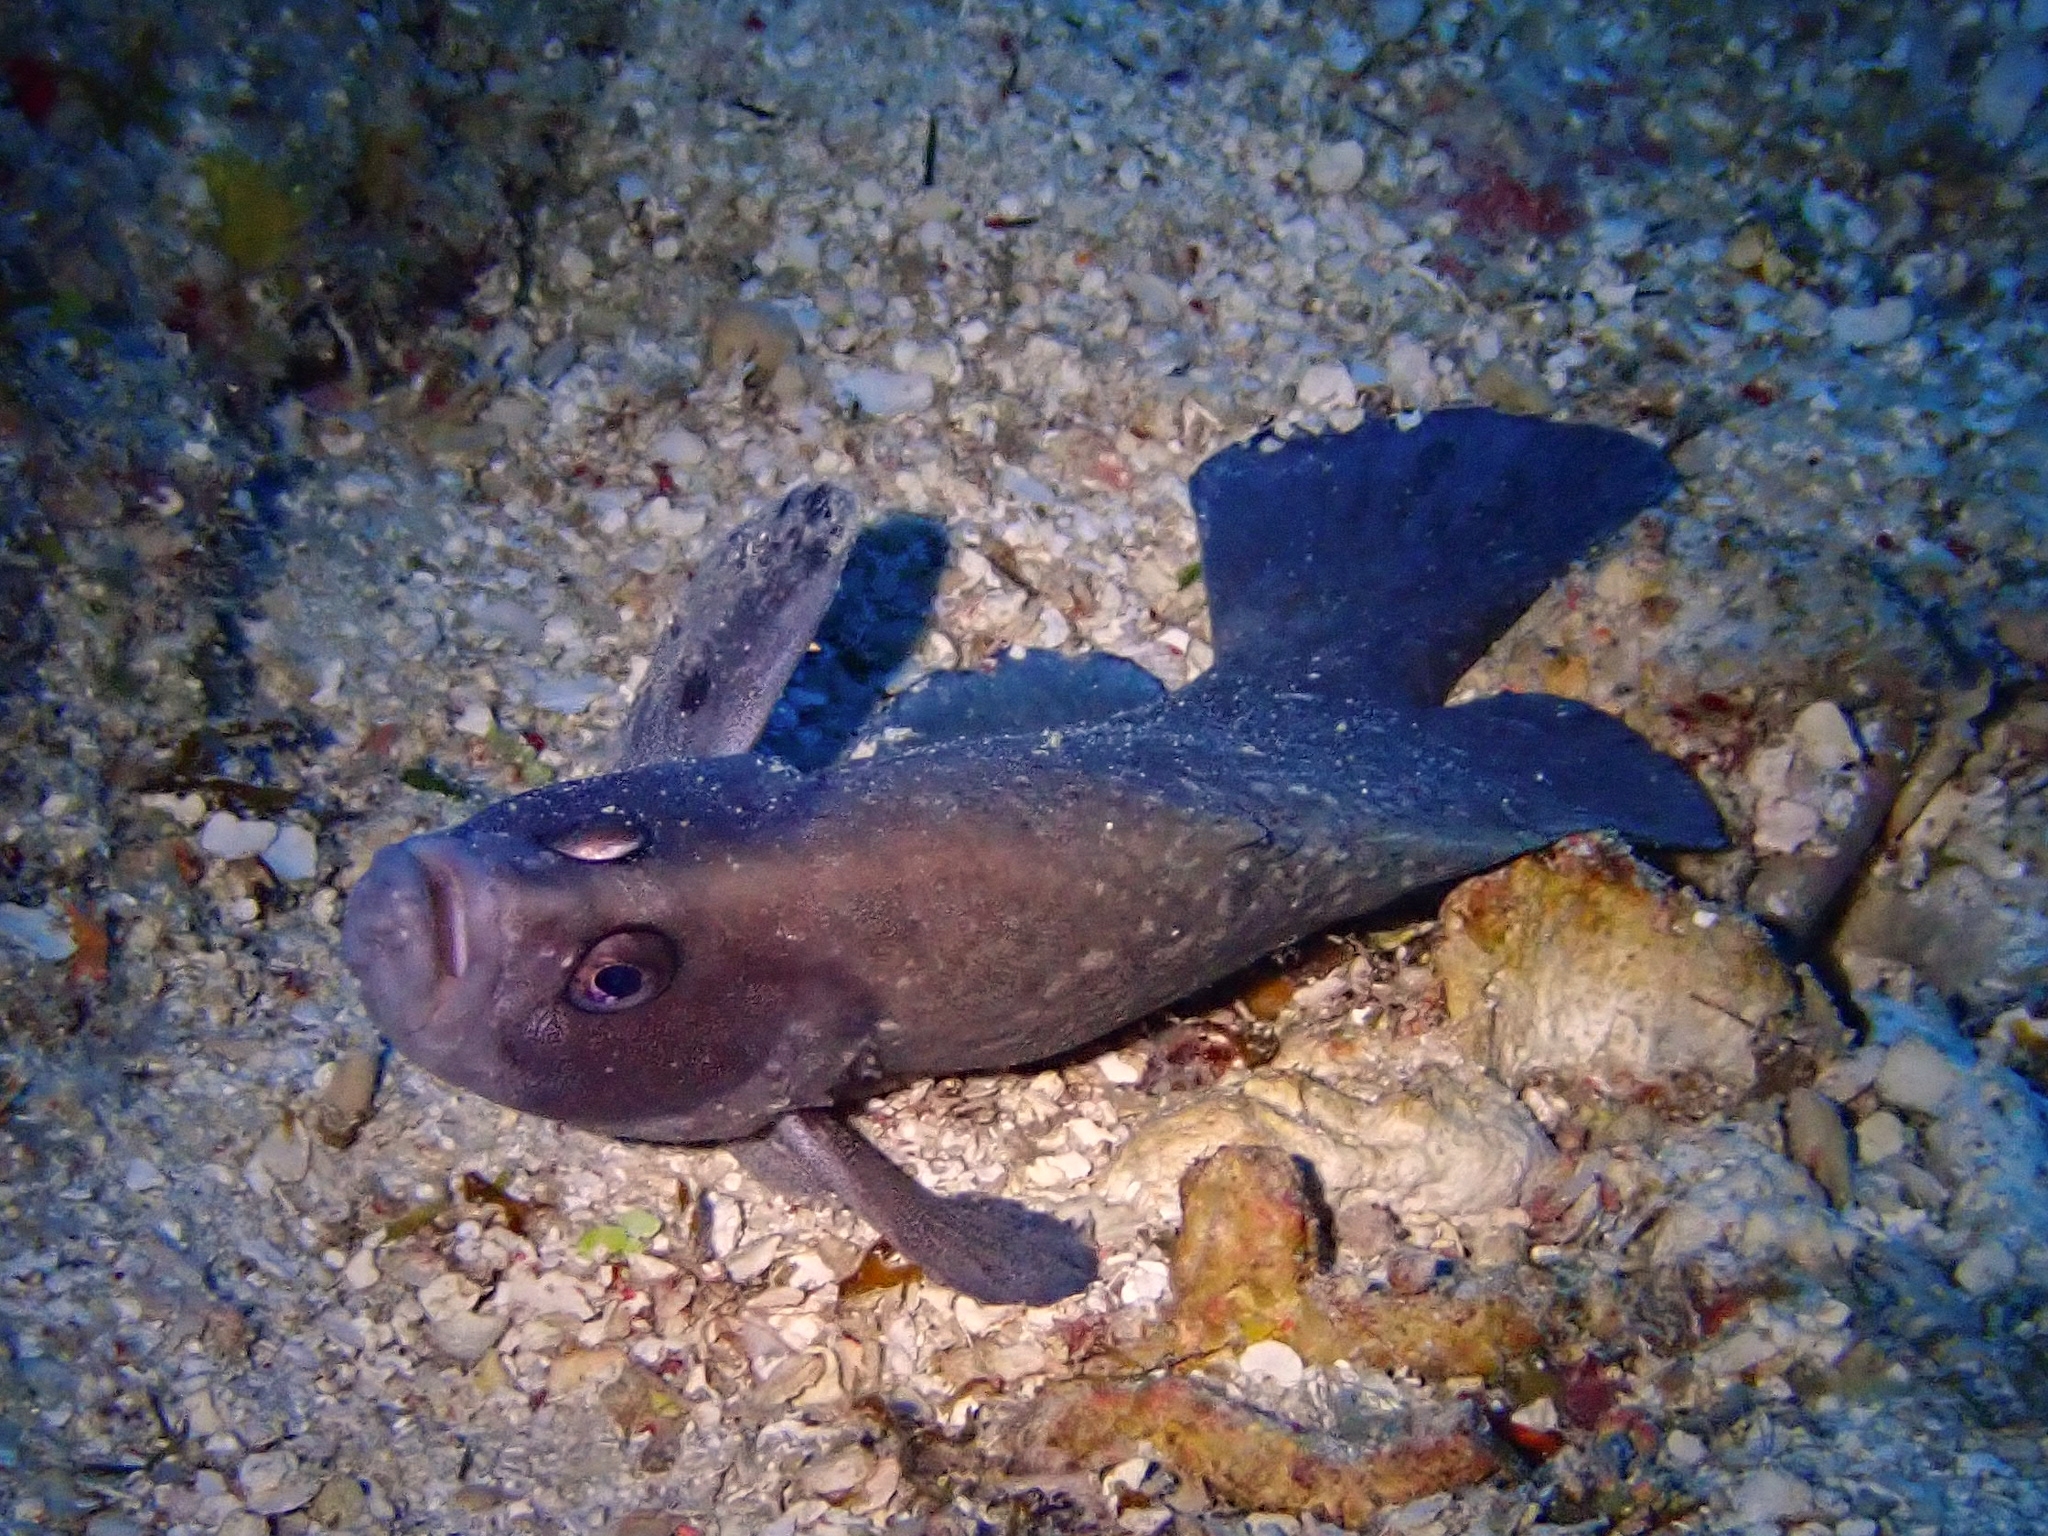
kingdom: Animalia
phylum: Chordata
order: Perciformes
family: Serranidae
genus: Rypticus
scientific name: Rypticus saponaceus
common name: Soapfish
